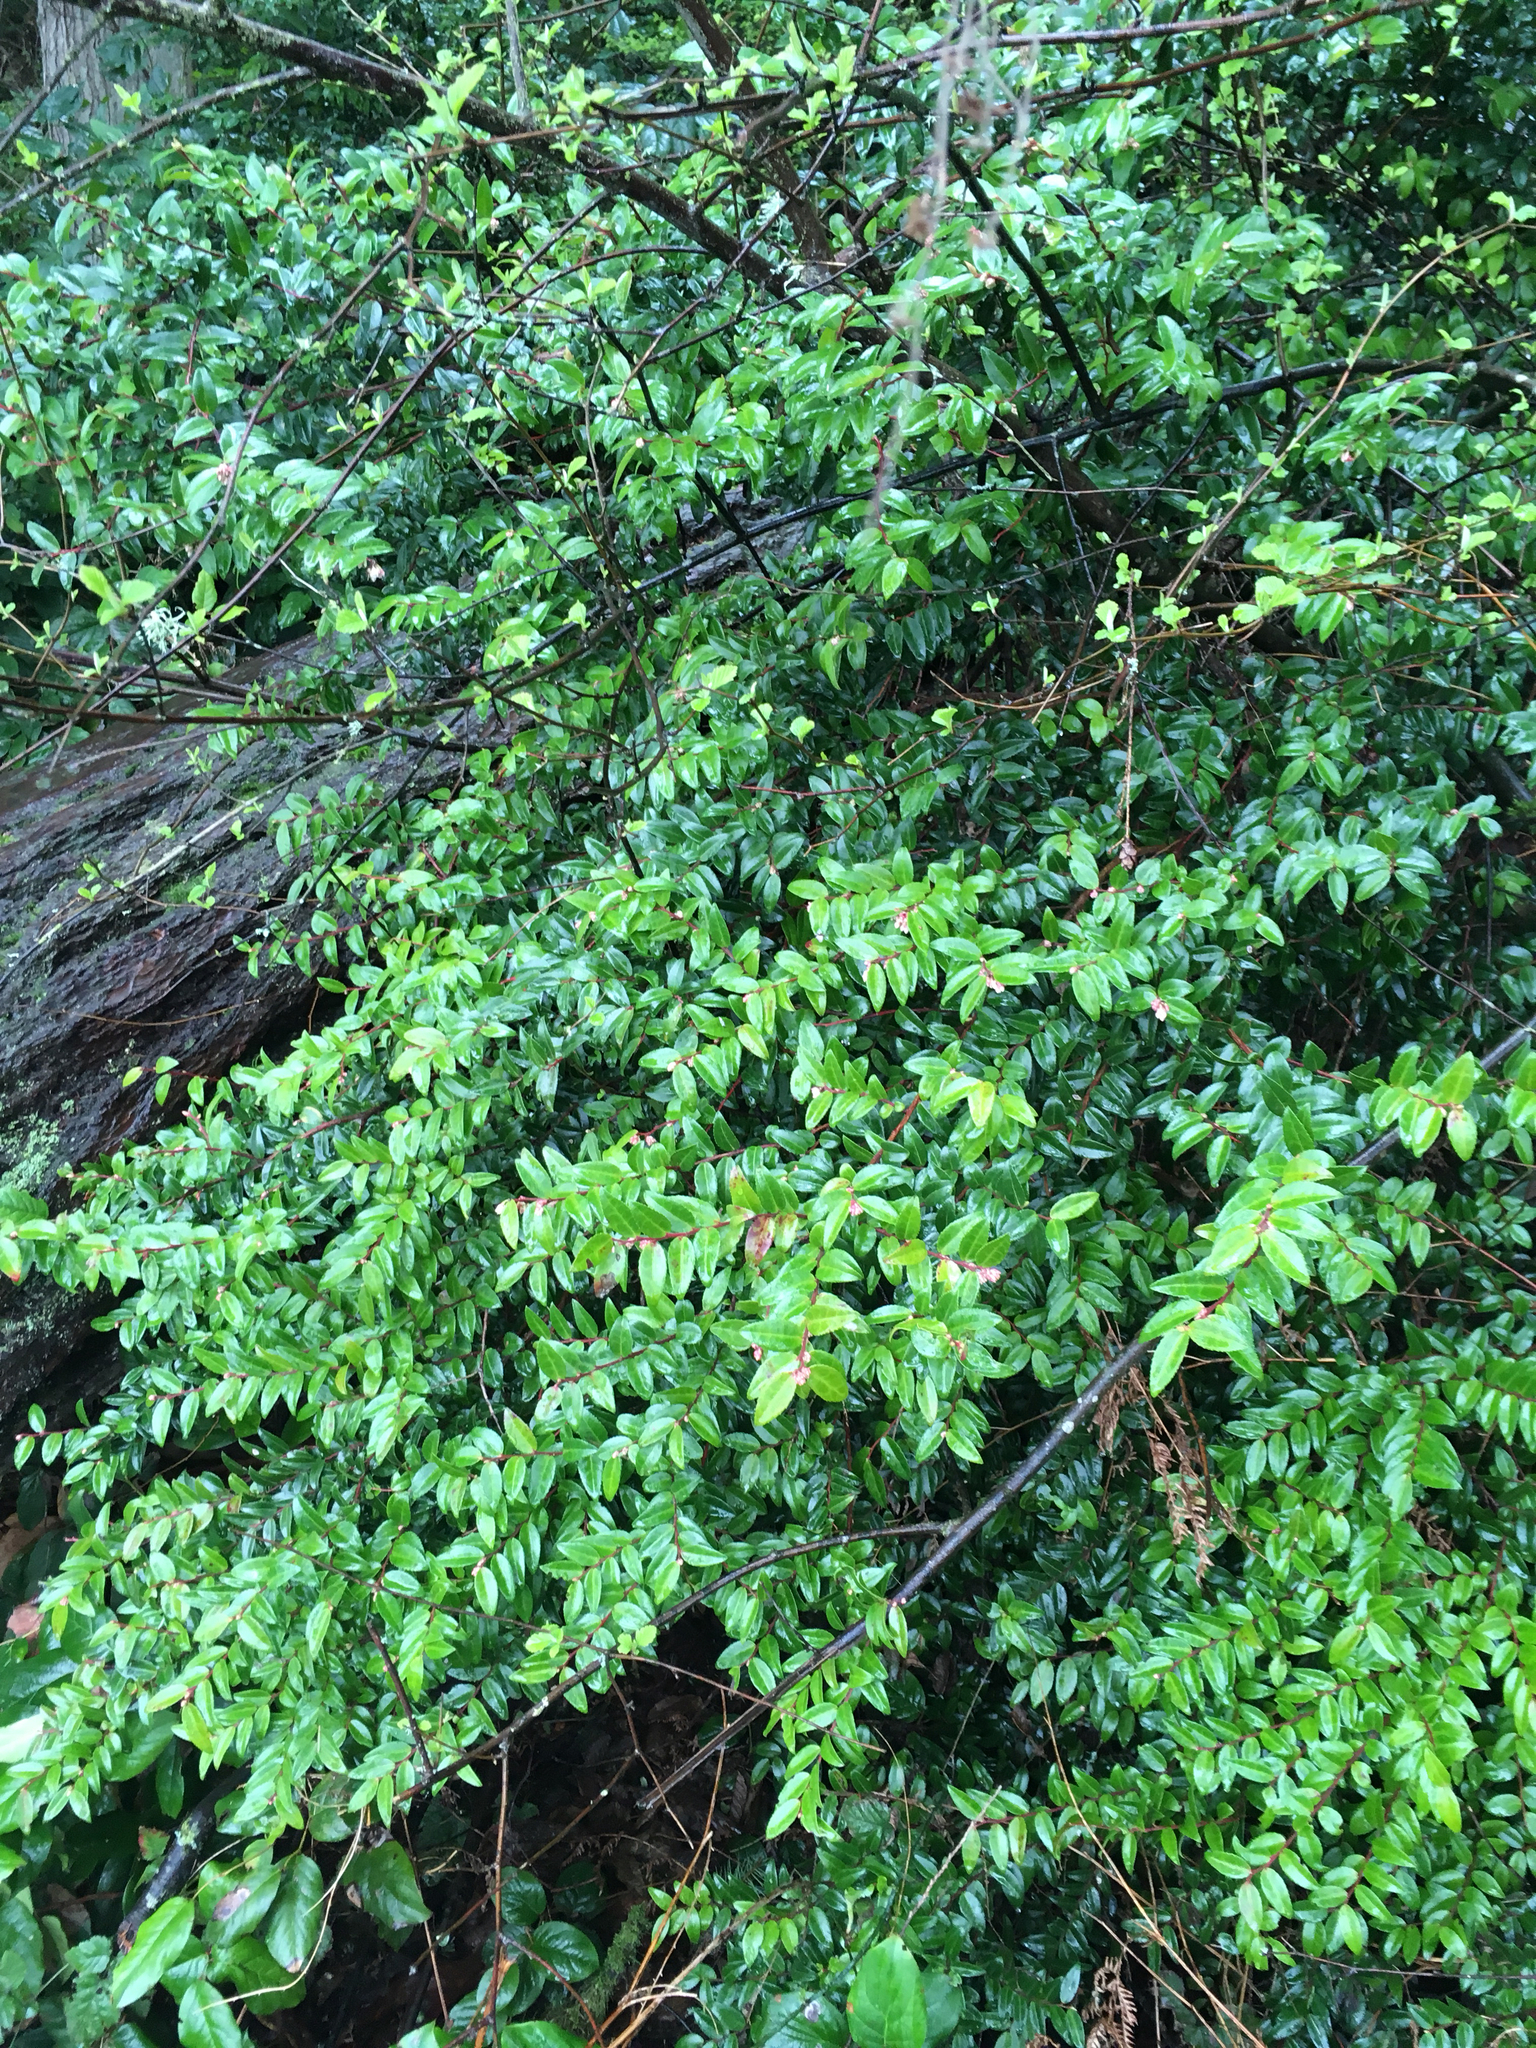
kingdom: Plantae
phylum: Tracheophyta
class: Magnoliopsida
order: Ericales
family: Ericaceae
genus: Vaccinium
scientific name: Vaccinium ovatum
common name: California-huckleberry
